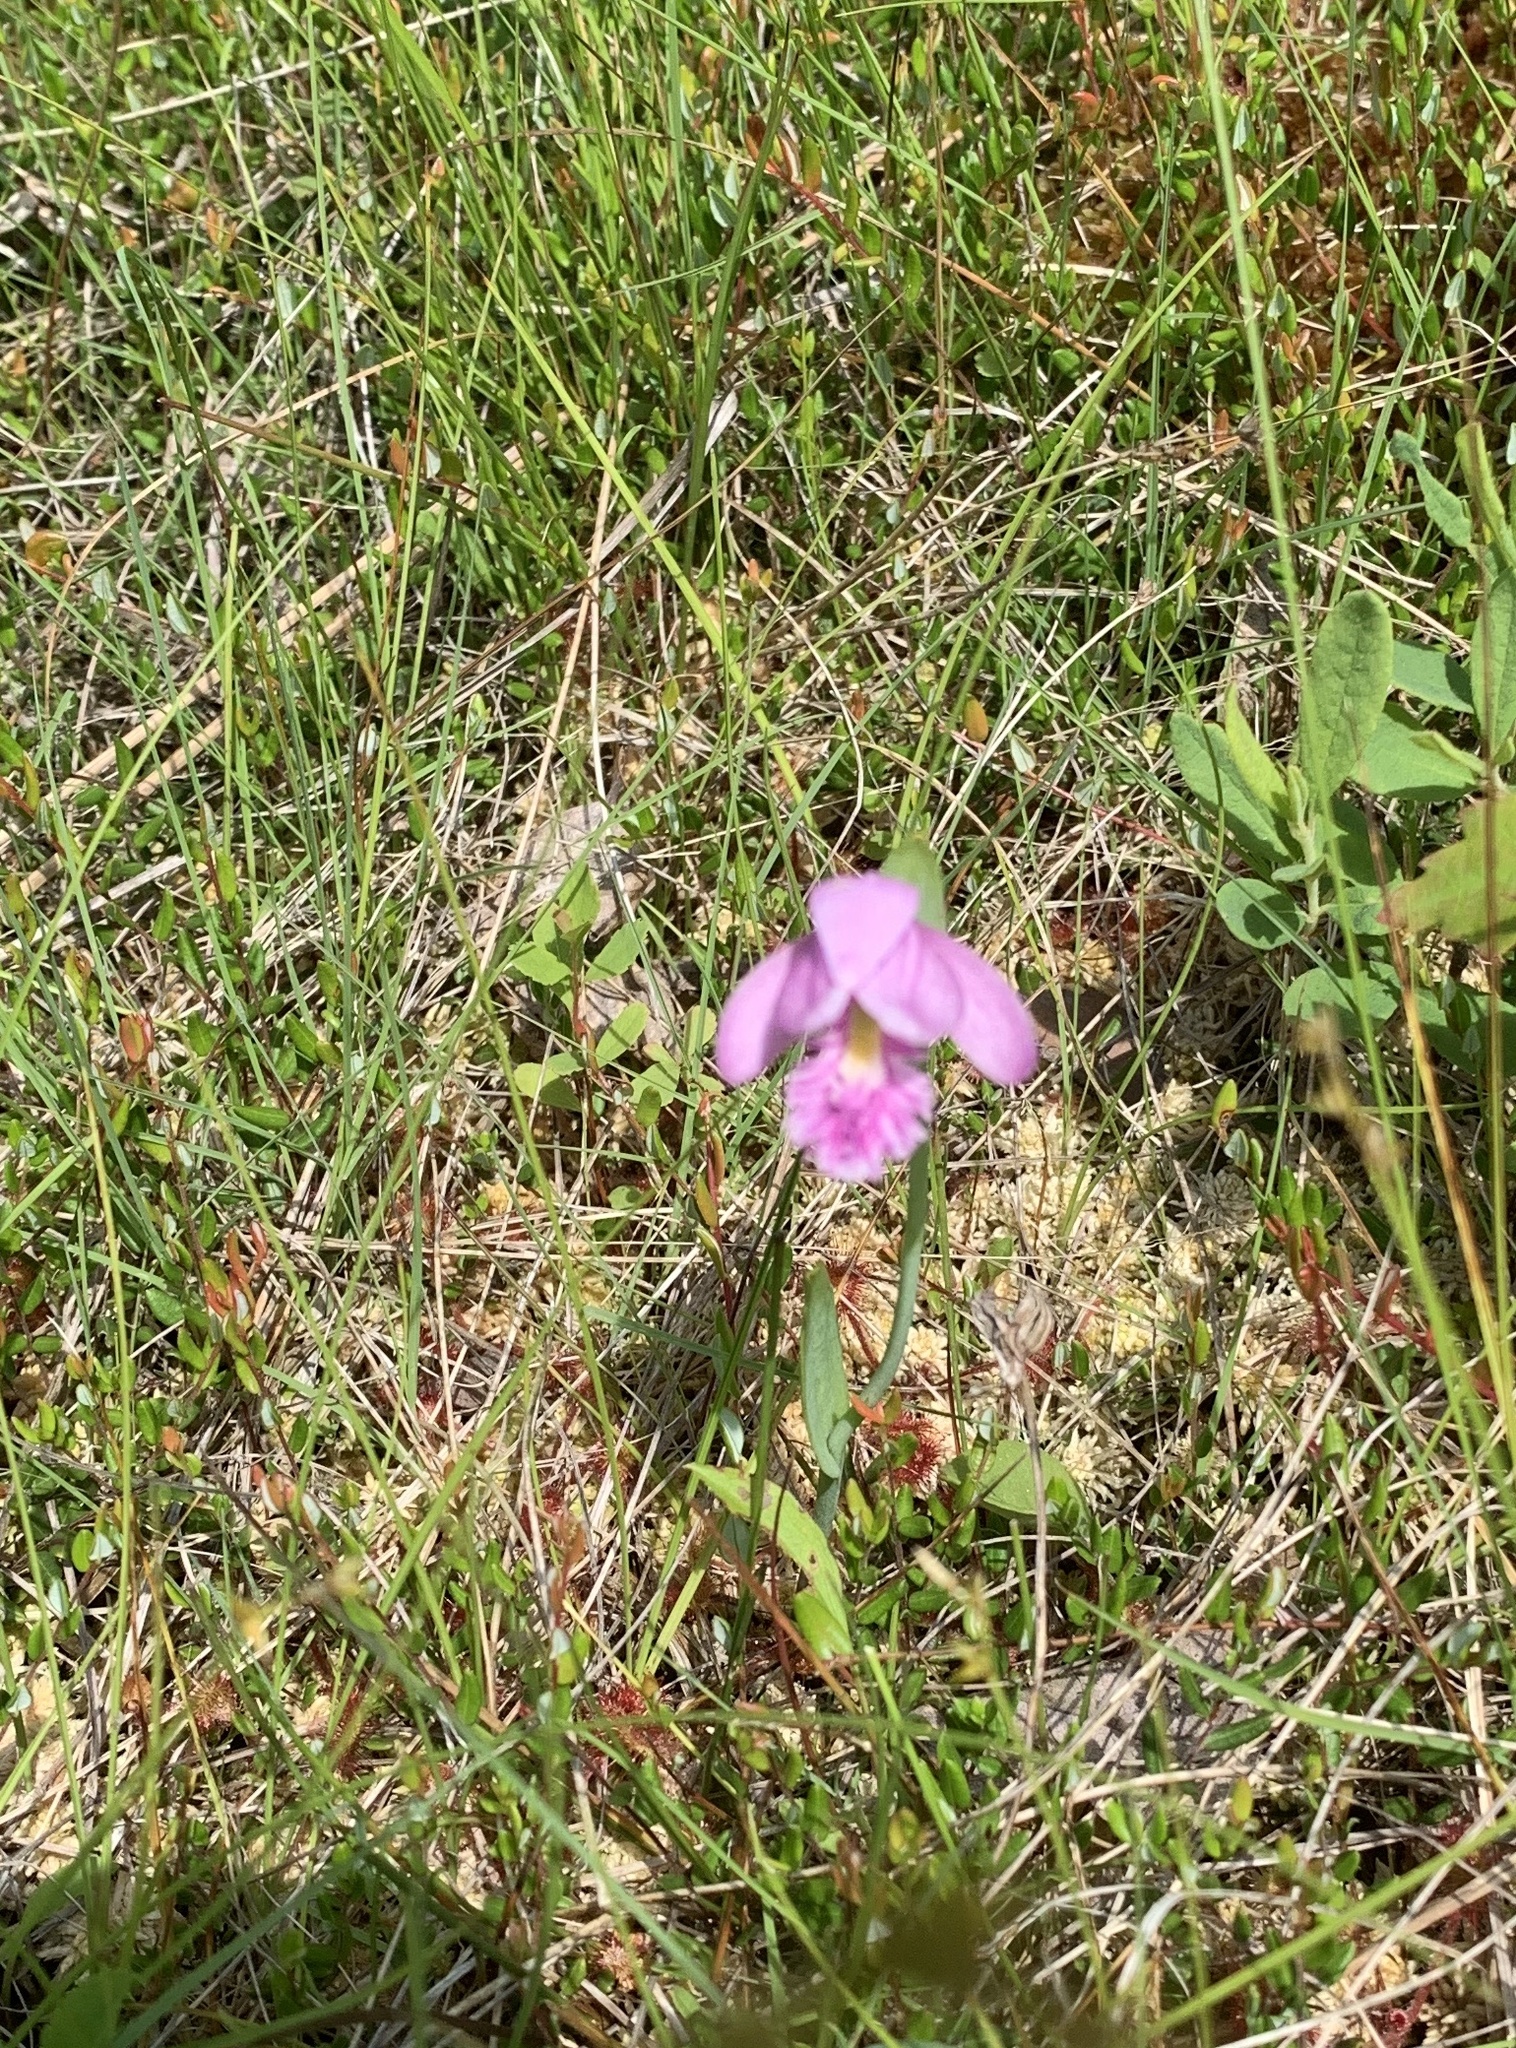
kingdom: Plantae
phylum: Tracheophyta
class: Liliopsida
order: Asparagales
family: Orchidaceae
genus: Pogonia
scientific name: Pogonia ophioglossoides
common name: Rose pogonia
